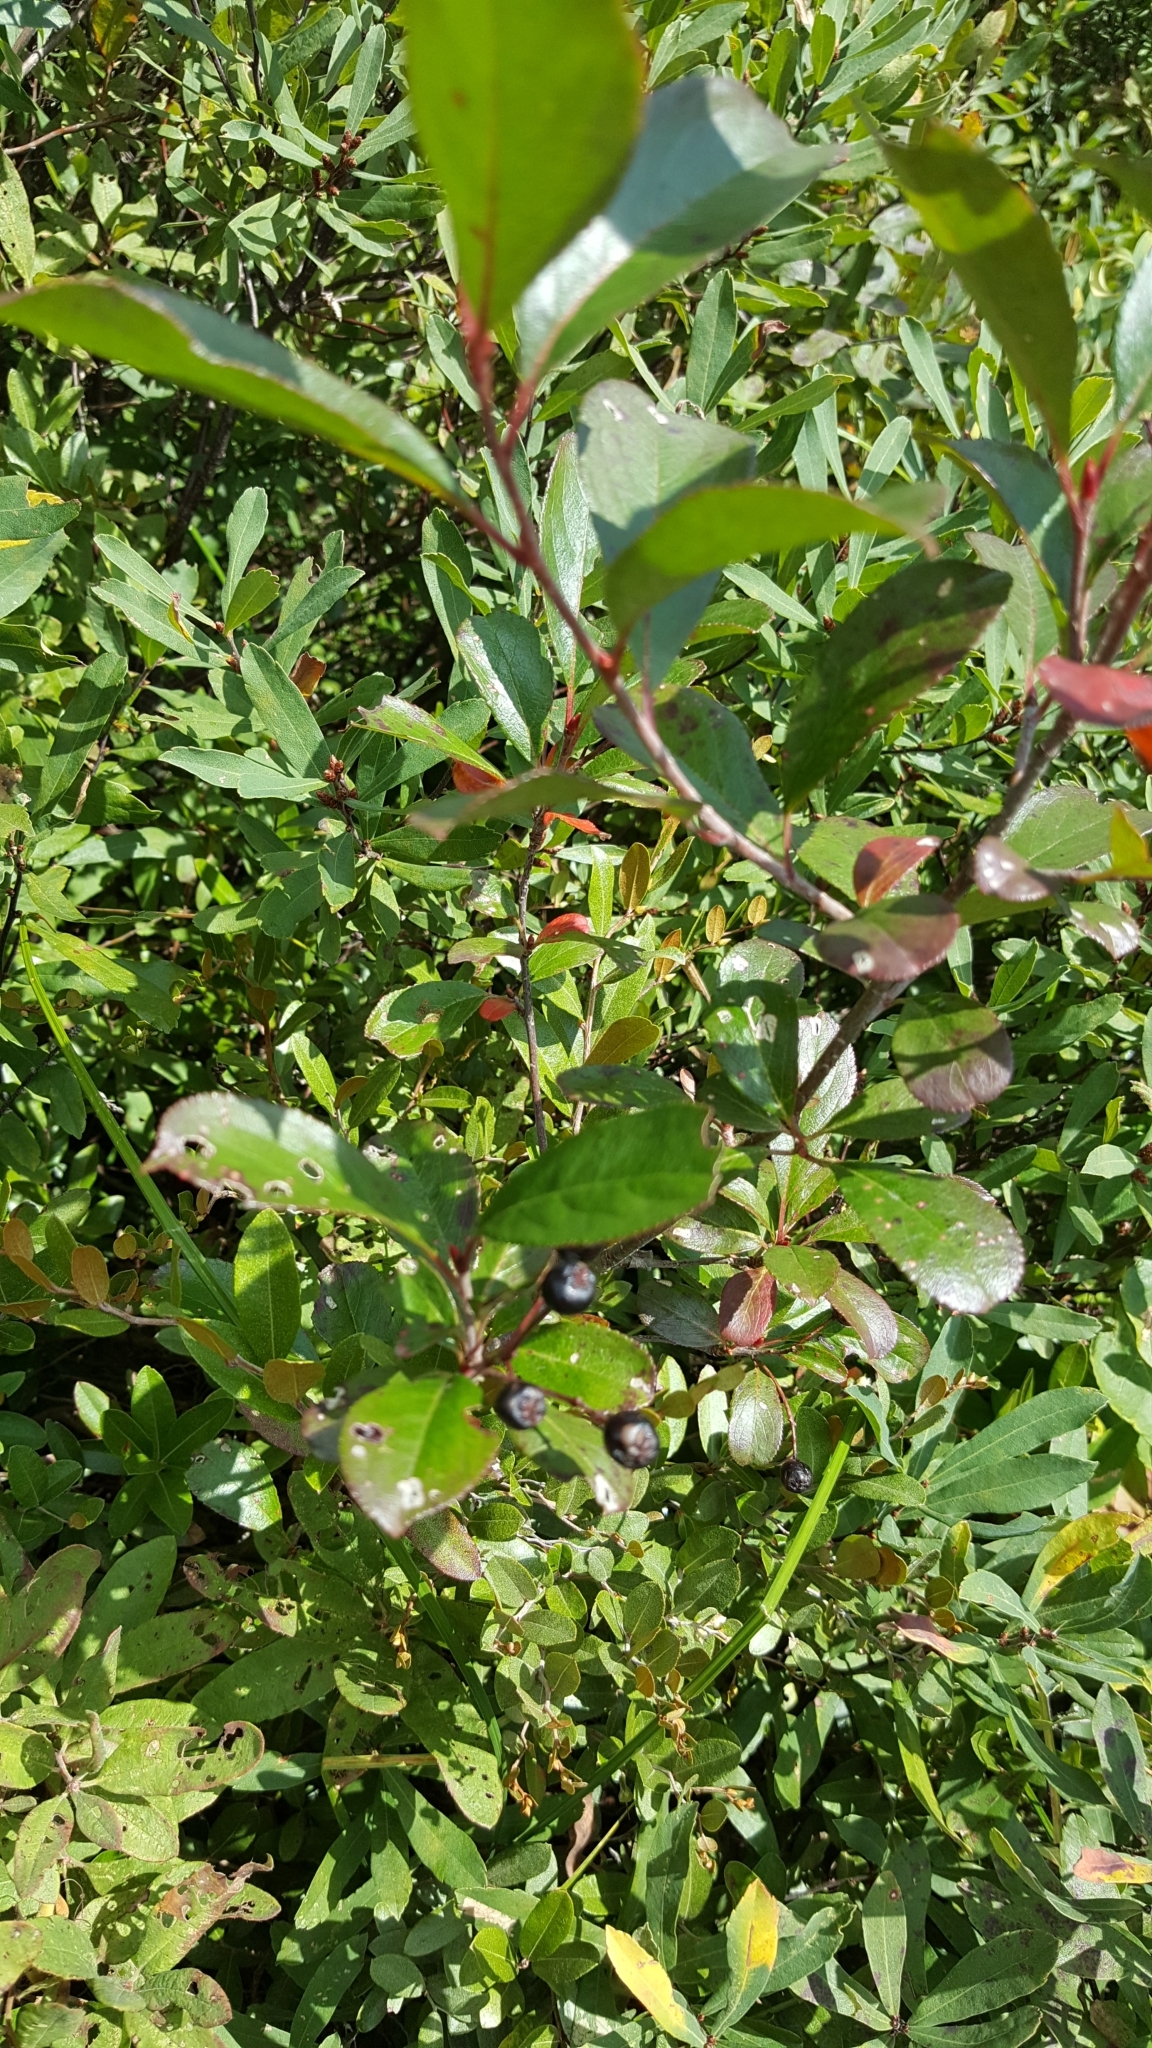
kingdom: Plantae
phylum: Tracheophyta
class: Magnoliopsida
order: Rosales
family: Rosaceae
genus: Aronia
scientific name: Aronia melanocarpa
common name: Black chokeberry
